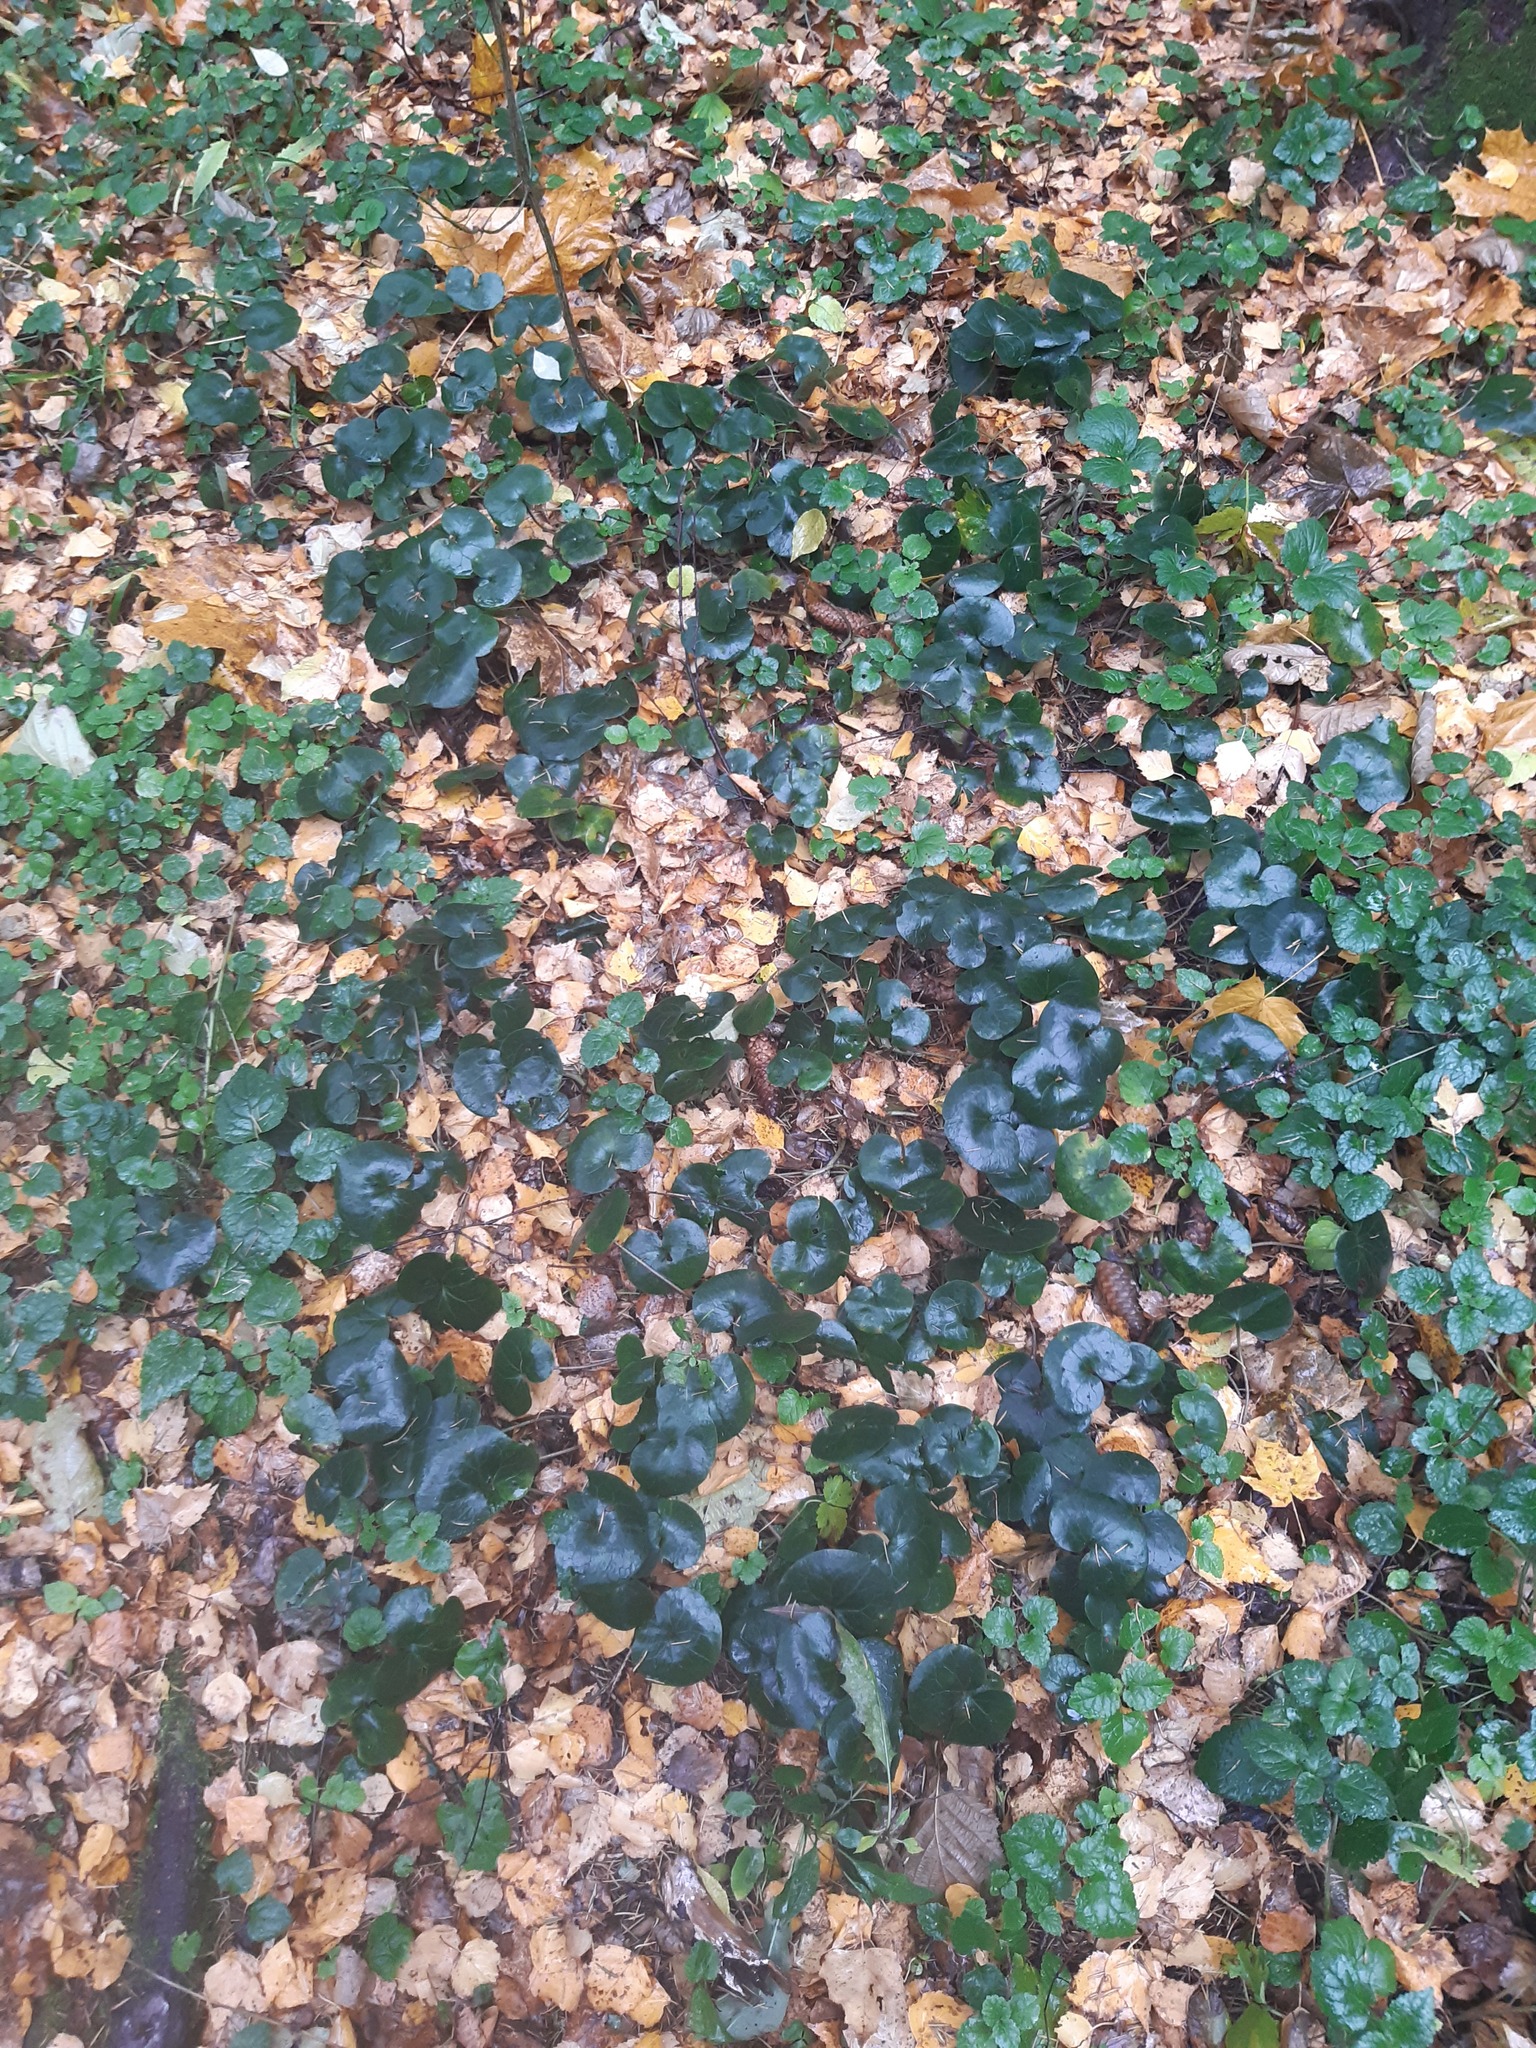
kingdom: Plantae
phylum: Tracheophyta
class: Magnoliopsida
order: Piperales
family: Aristolochiaceae
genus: Asarum
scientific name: Asarum europaeum
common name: Asarabacca
